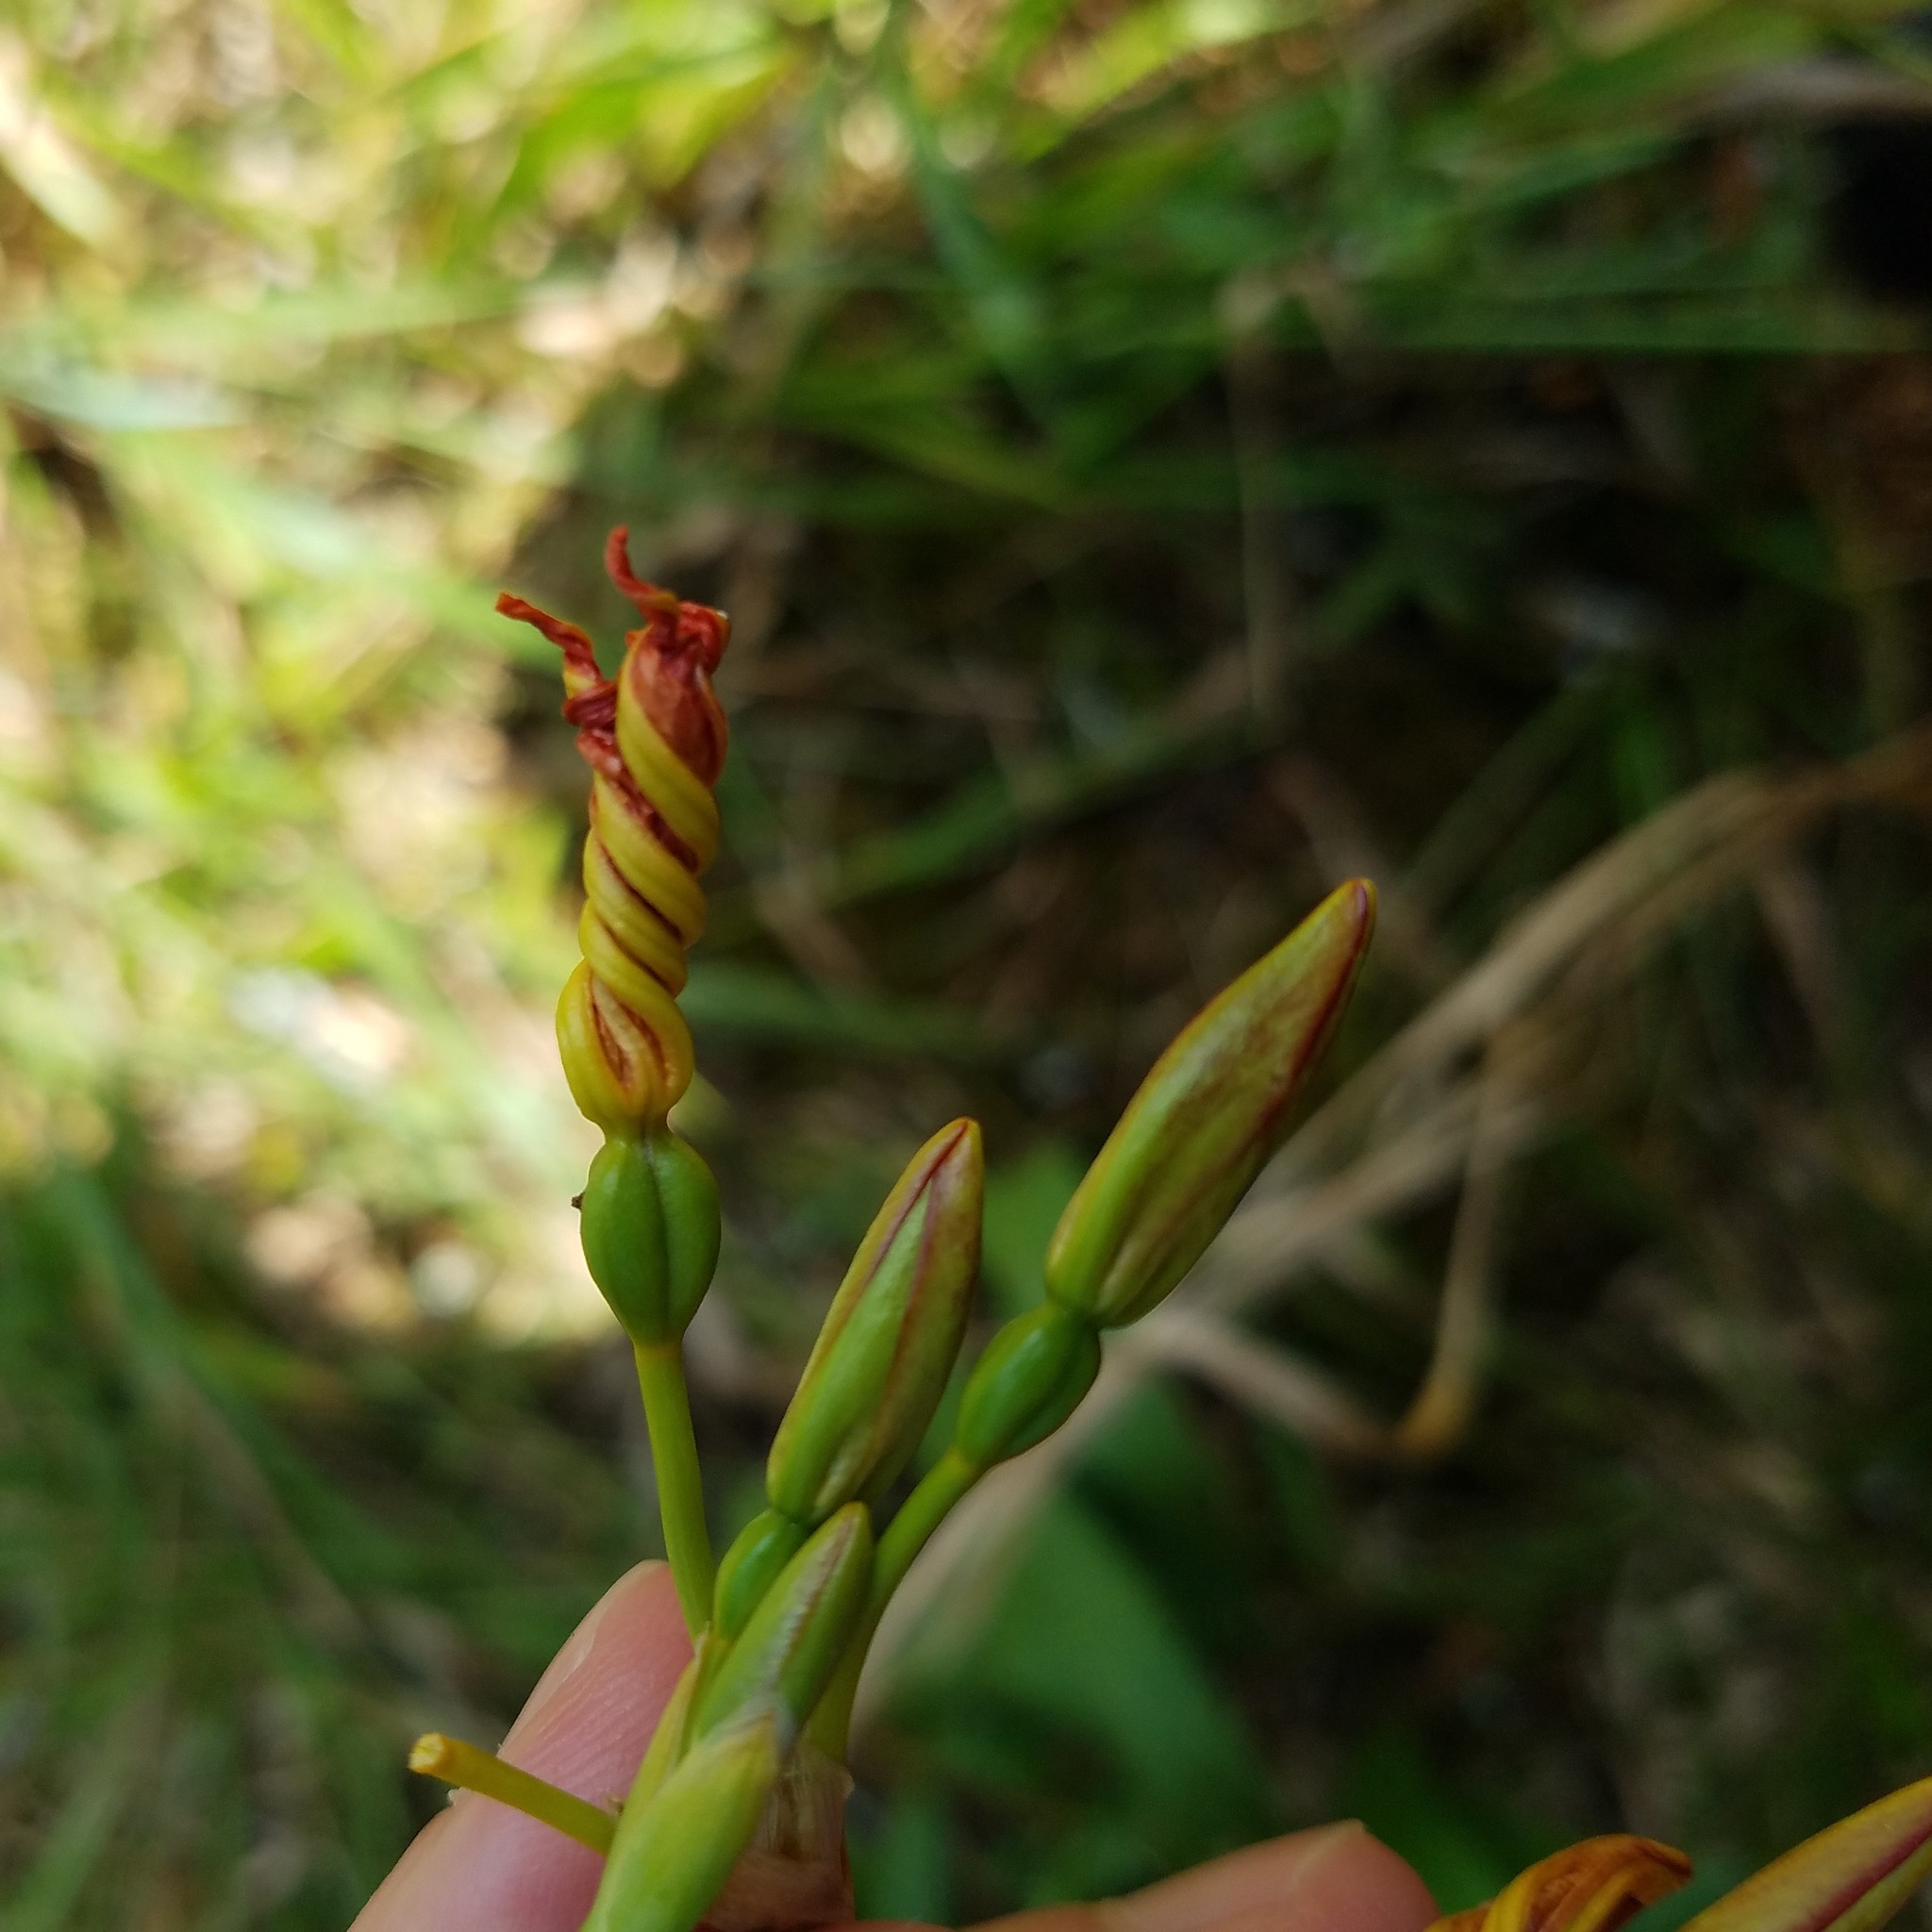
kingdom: Plantae
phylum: Tracheophyta
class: Liliopsida
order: Asparagales
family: Iridaceae
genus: Iris
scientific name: Iris domestica
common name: Belamcanda
